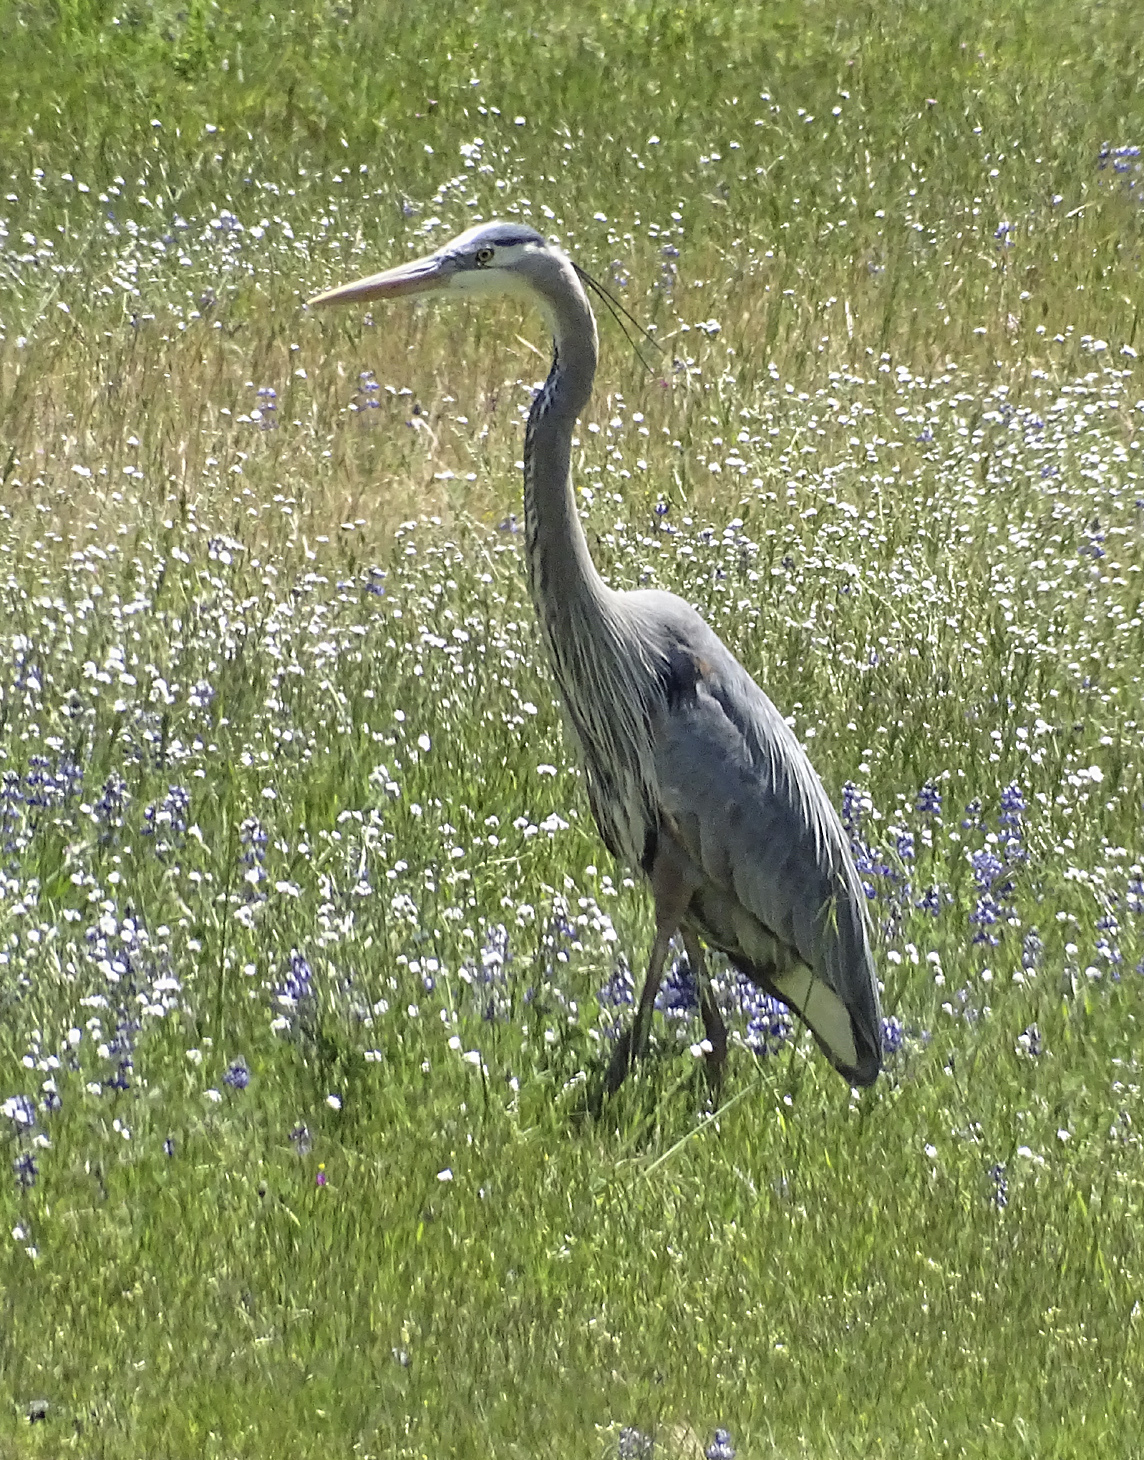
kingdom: Animalia
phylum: Chordata
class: Aves
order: Pelecaniformes
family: Ardeidae
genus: Ardea
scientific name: Ardea herodias
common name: Great blue heron
